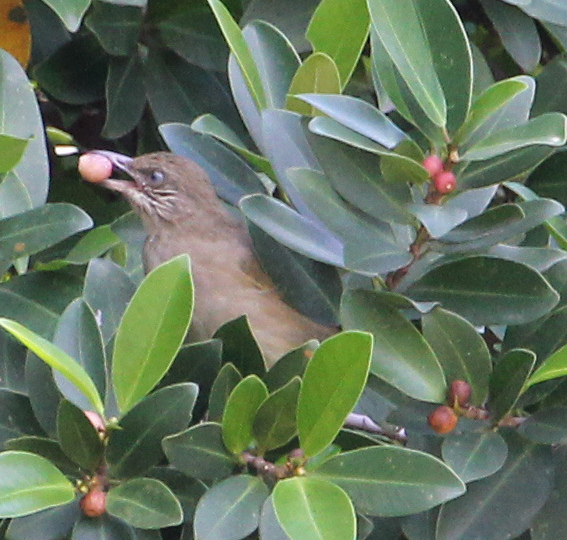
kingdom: Animalia
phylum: Chordata
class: Aves
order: Passeriformes
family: Pycnonotidae
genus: Pycnonotus
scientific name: Pycnonotus blanfordi
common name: Streak-eared bulbul
